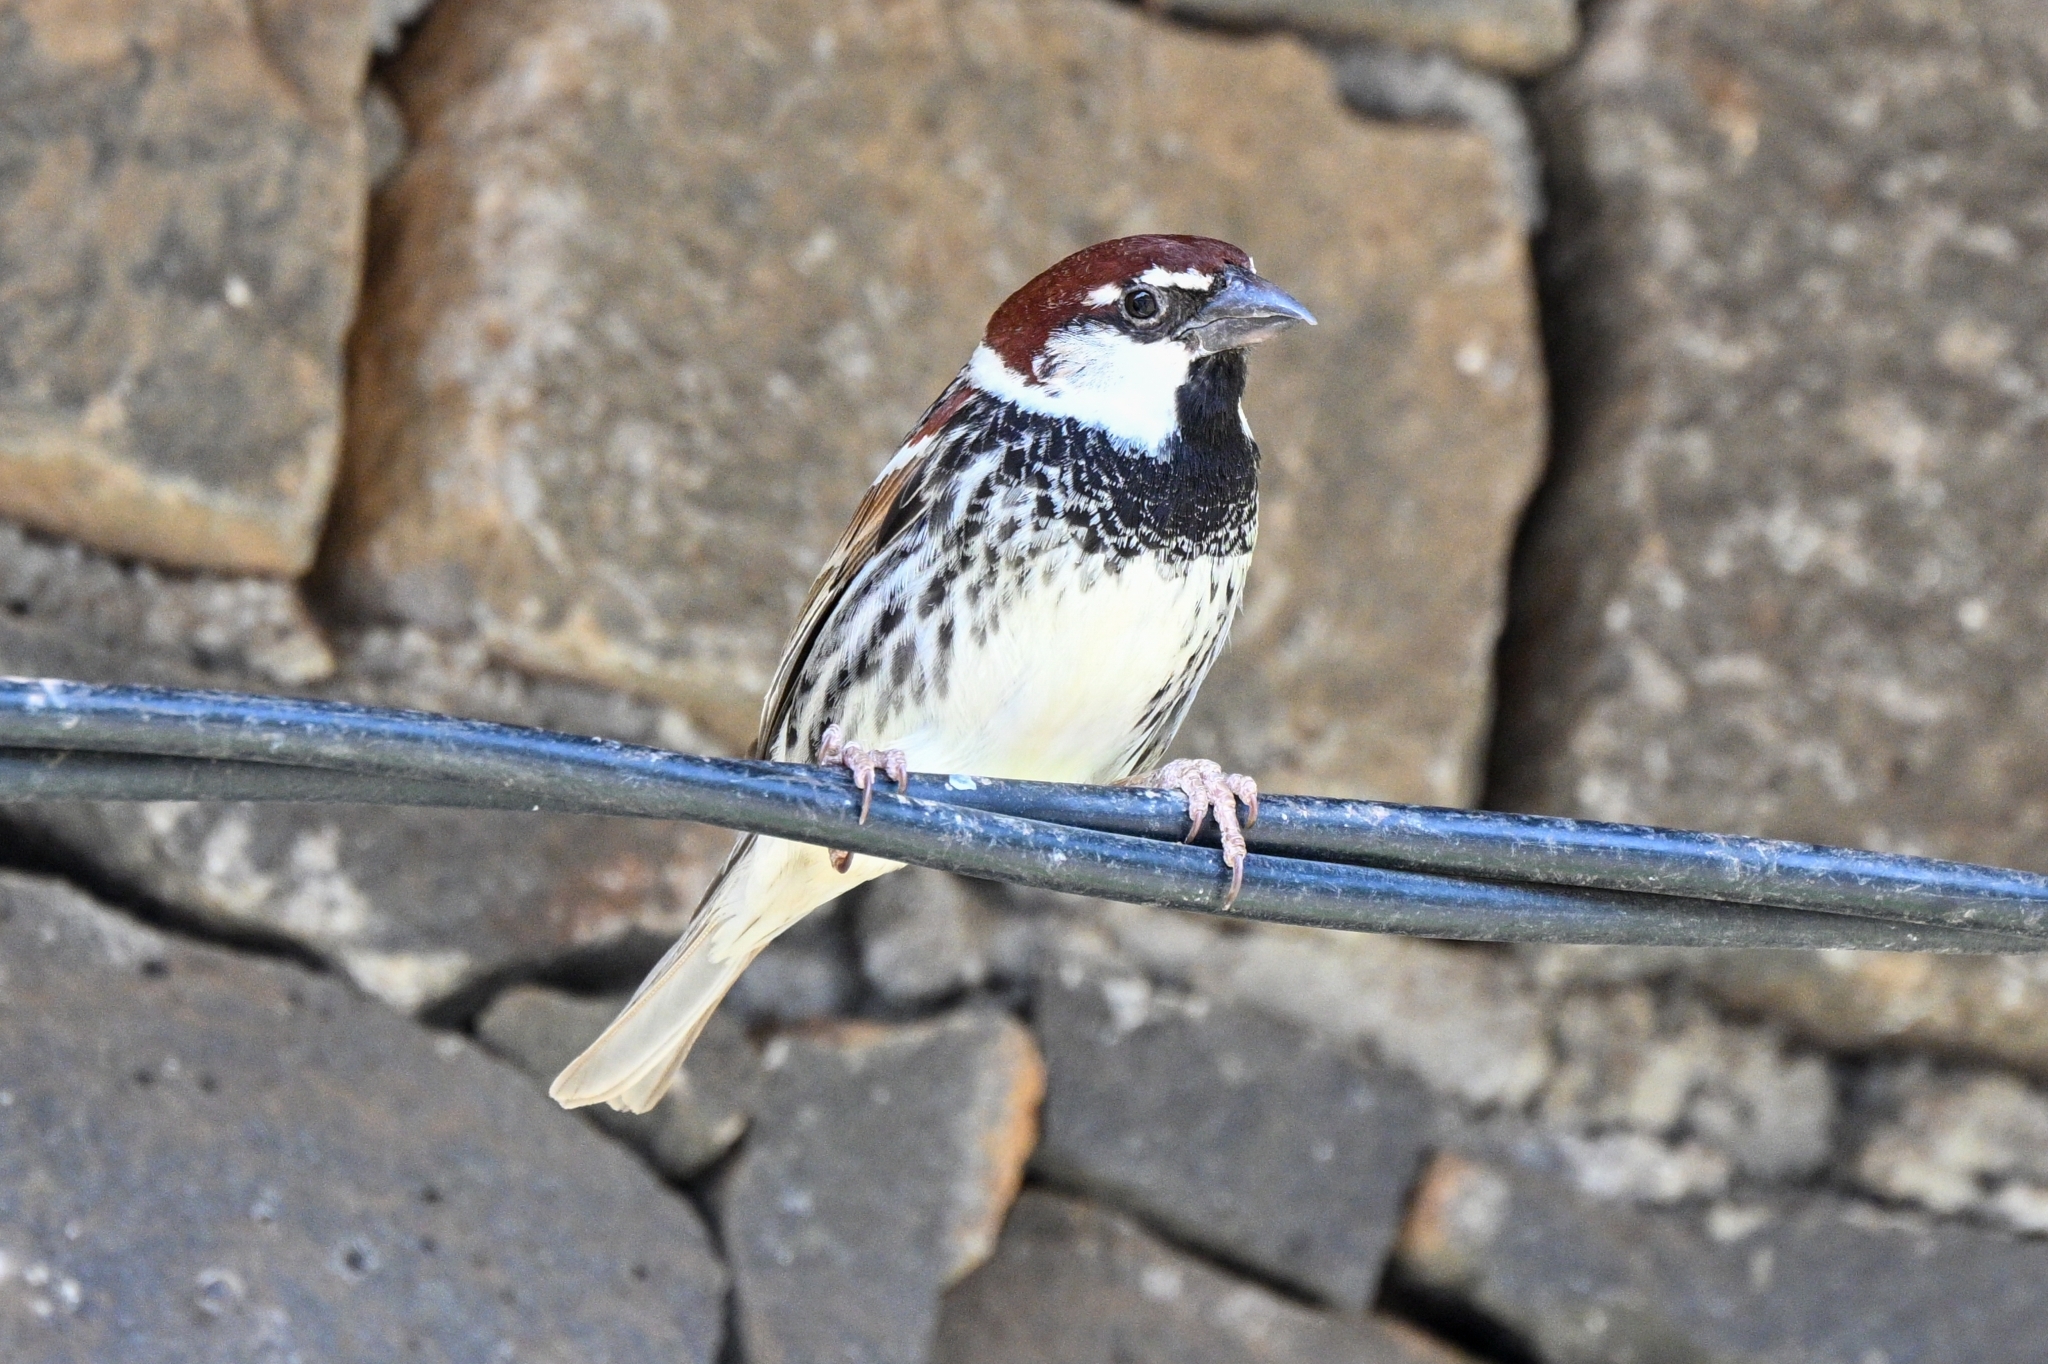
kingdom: Animalia
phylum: Chordata
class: Aves
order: Passeriformes
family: Passeridae
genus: Passer
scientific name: Passer hispaniolensis
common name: Spanish sparrow
